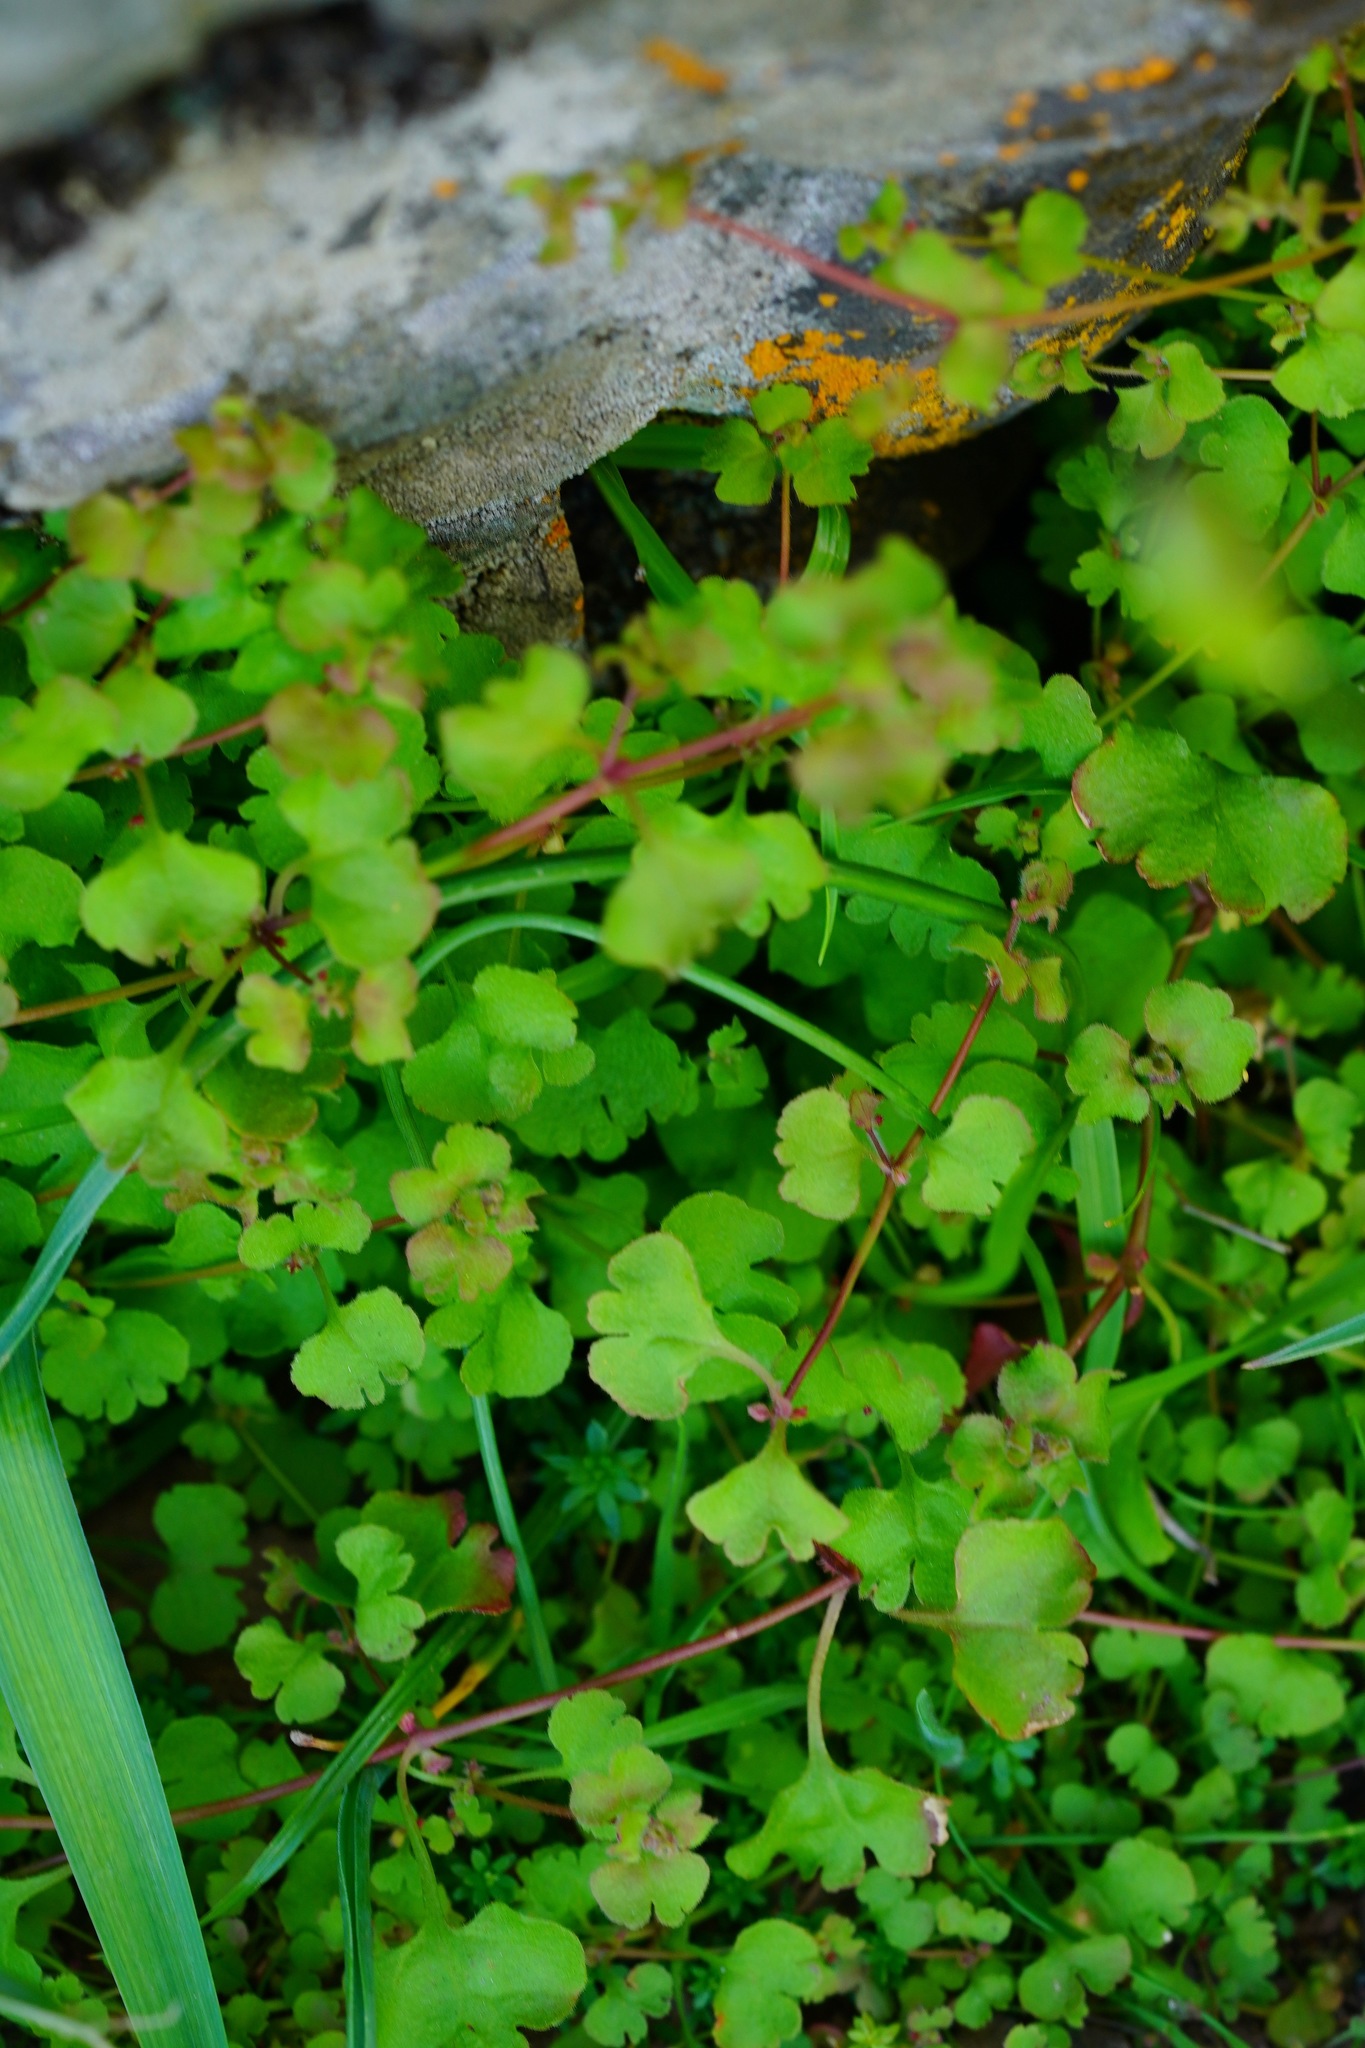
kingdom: Plantae
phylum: Tracheophyta
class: Magnoliopsida
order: Caryophyllales
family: Polygonaceae
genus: Pterostegia
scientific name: Pterostegia drymarioides
